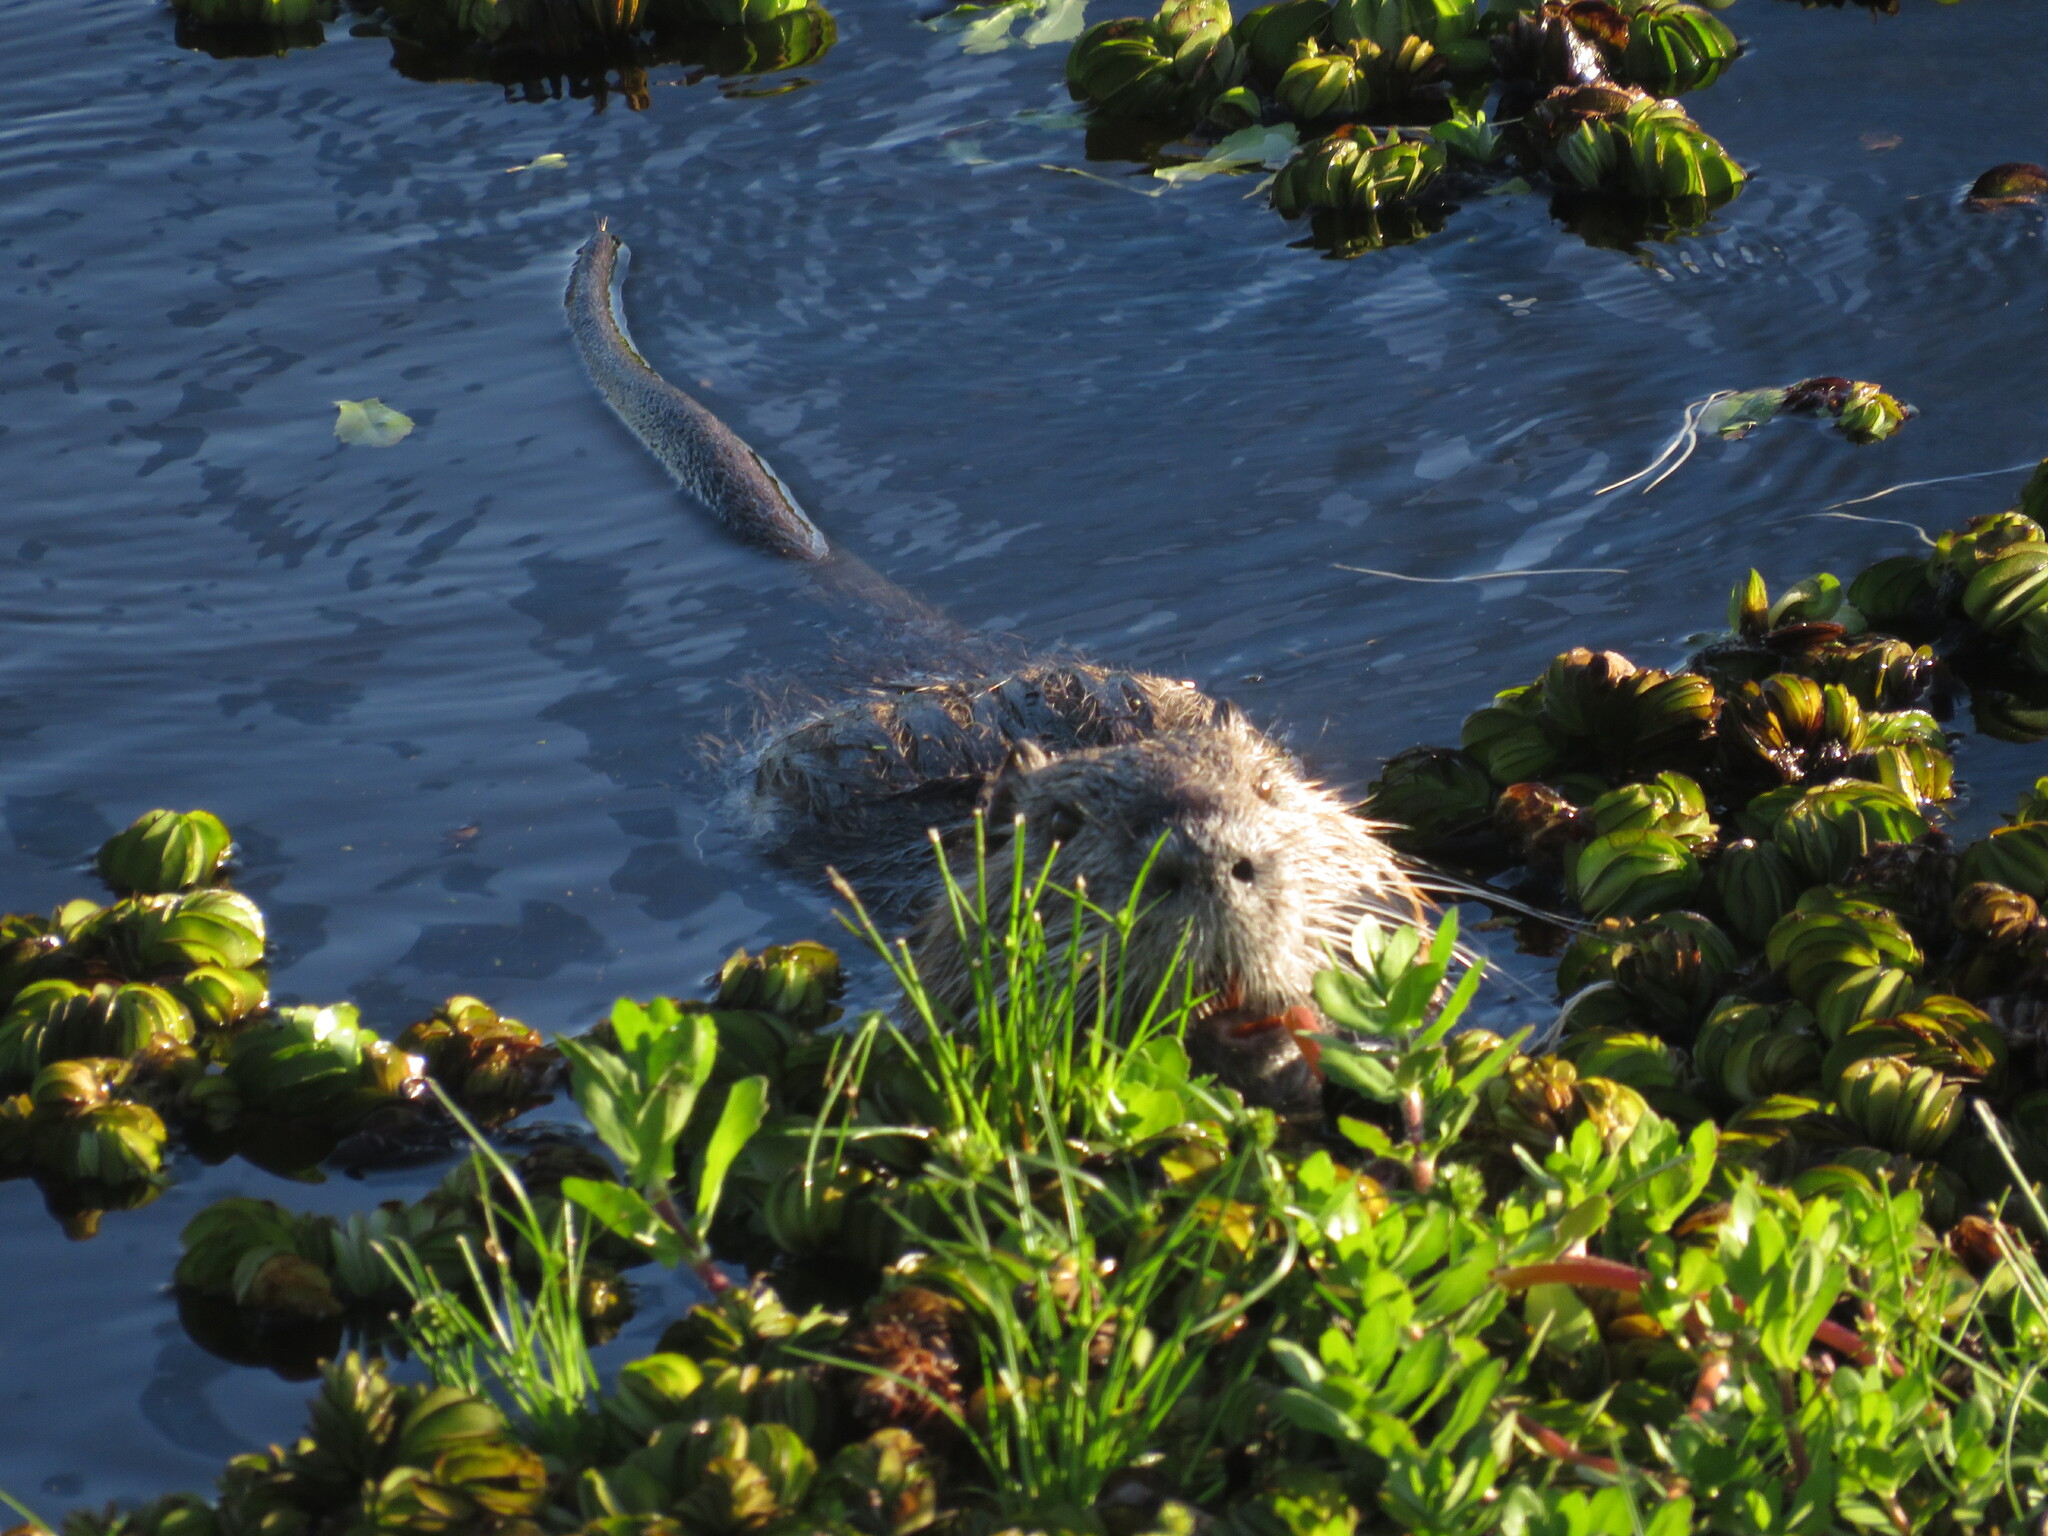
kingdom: Animalia
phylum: Chordata
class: Mammalia
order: Rodentia
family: Myocastoridae
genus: Myocastor
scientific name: Myocastor coypus
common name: Coypu
